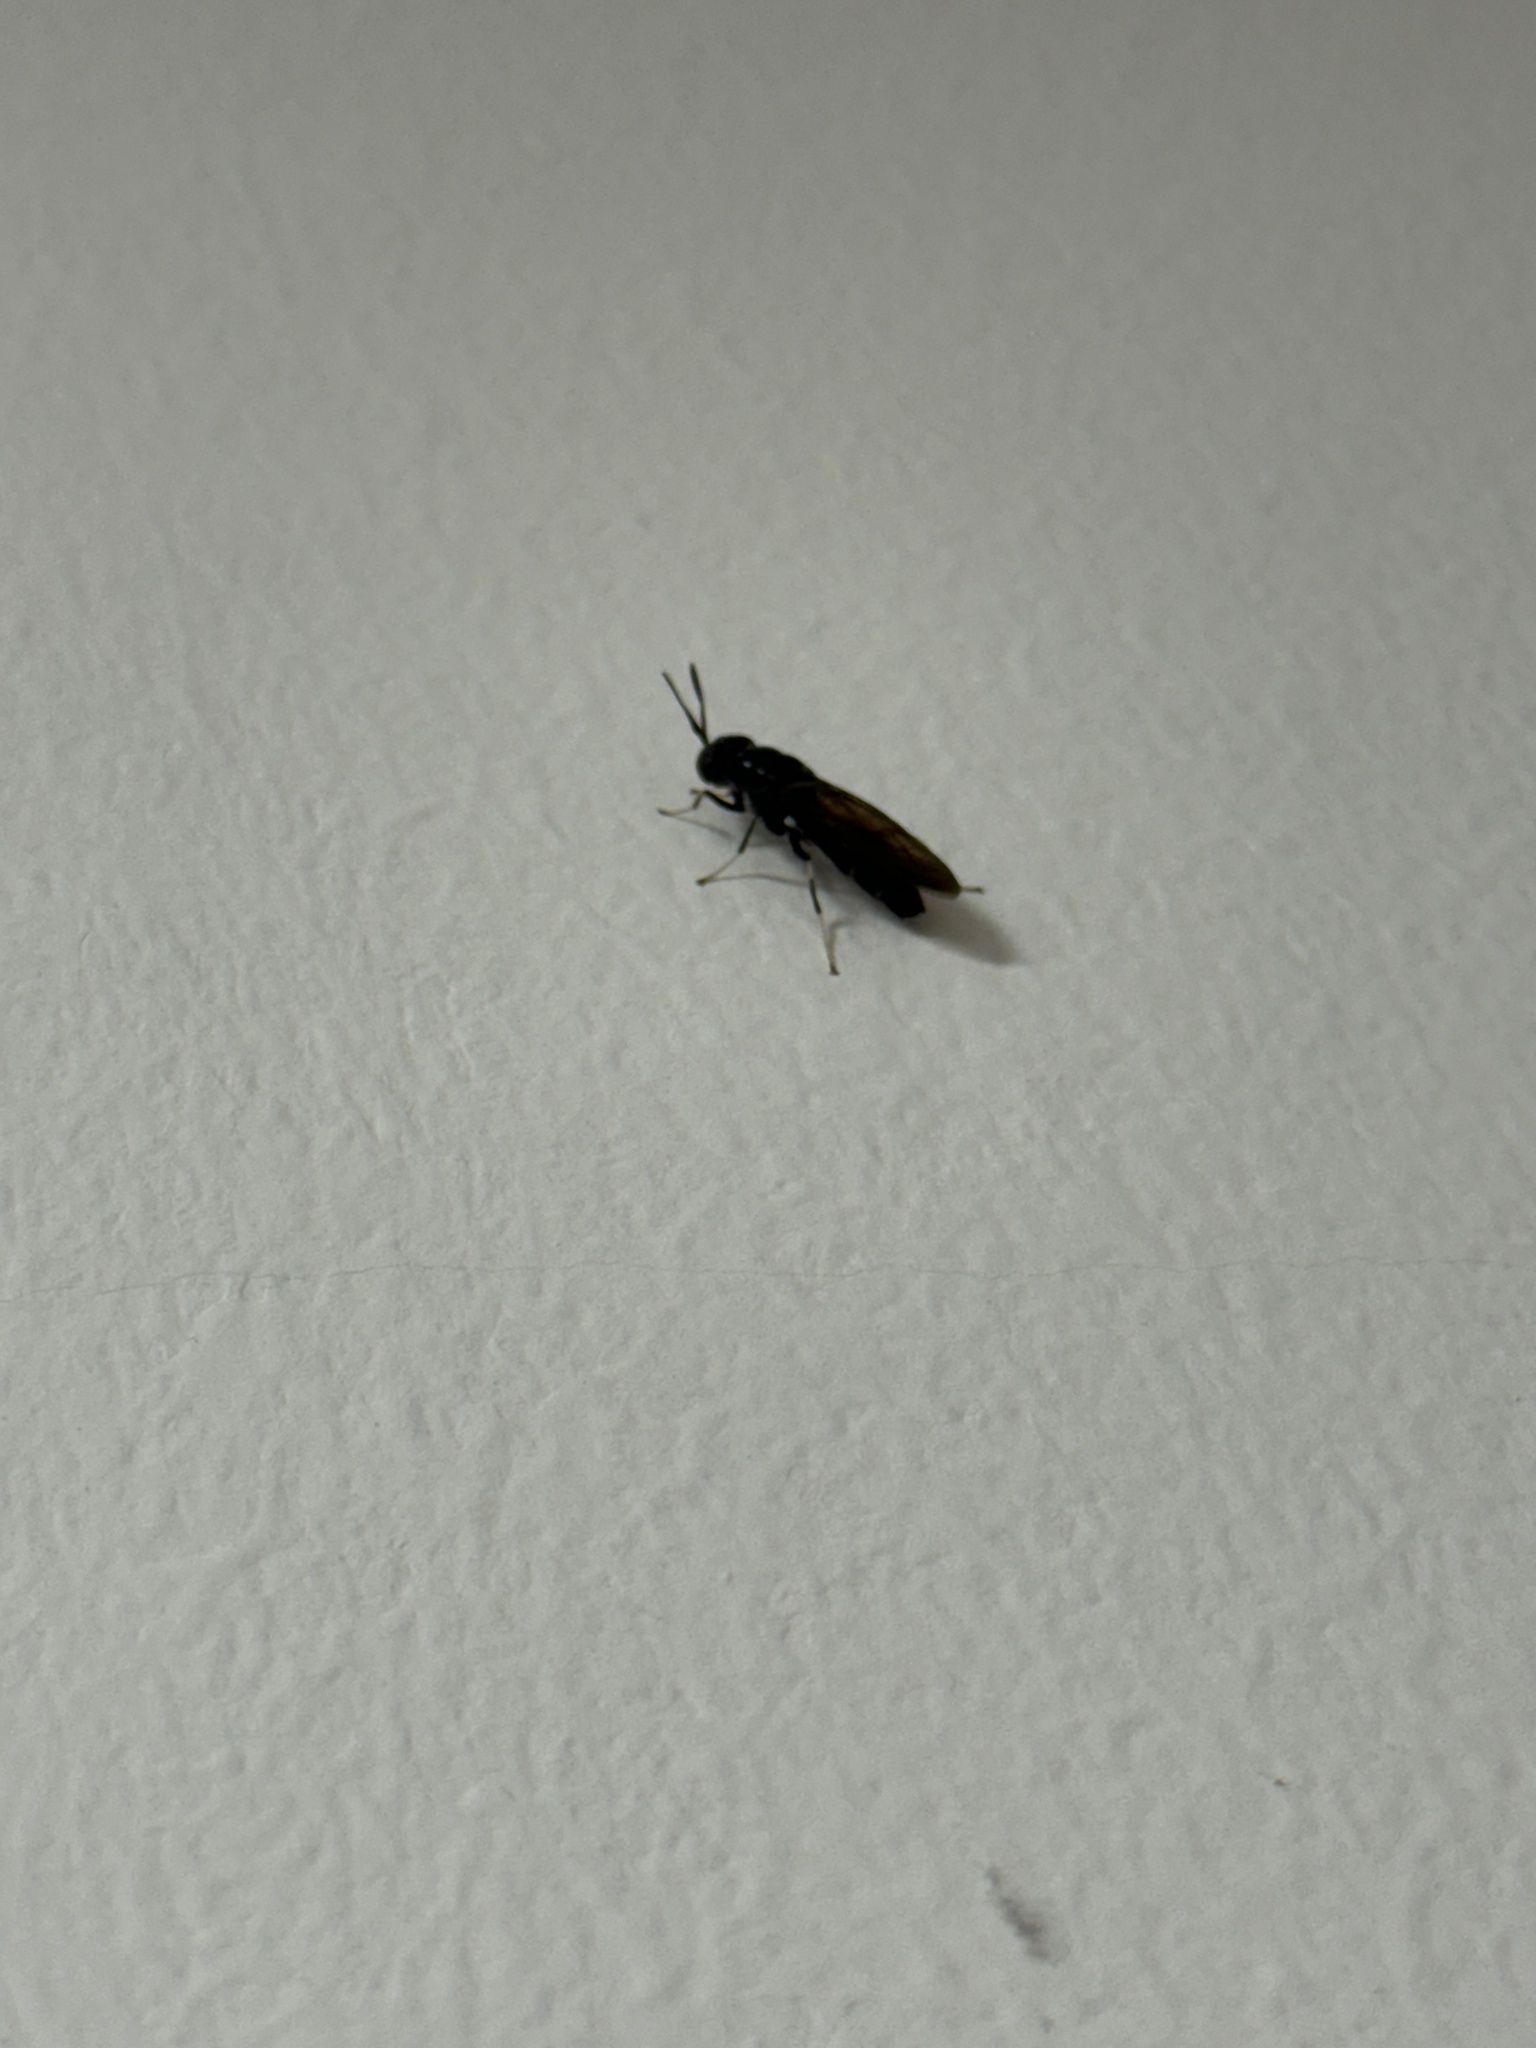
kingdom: Animalia
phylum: Arthropoda
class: Insecta
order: Diptera
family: Stratiomyidae
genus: Hermetia
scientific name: Hermetia illucens
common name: Black soldier fly
